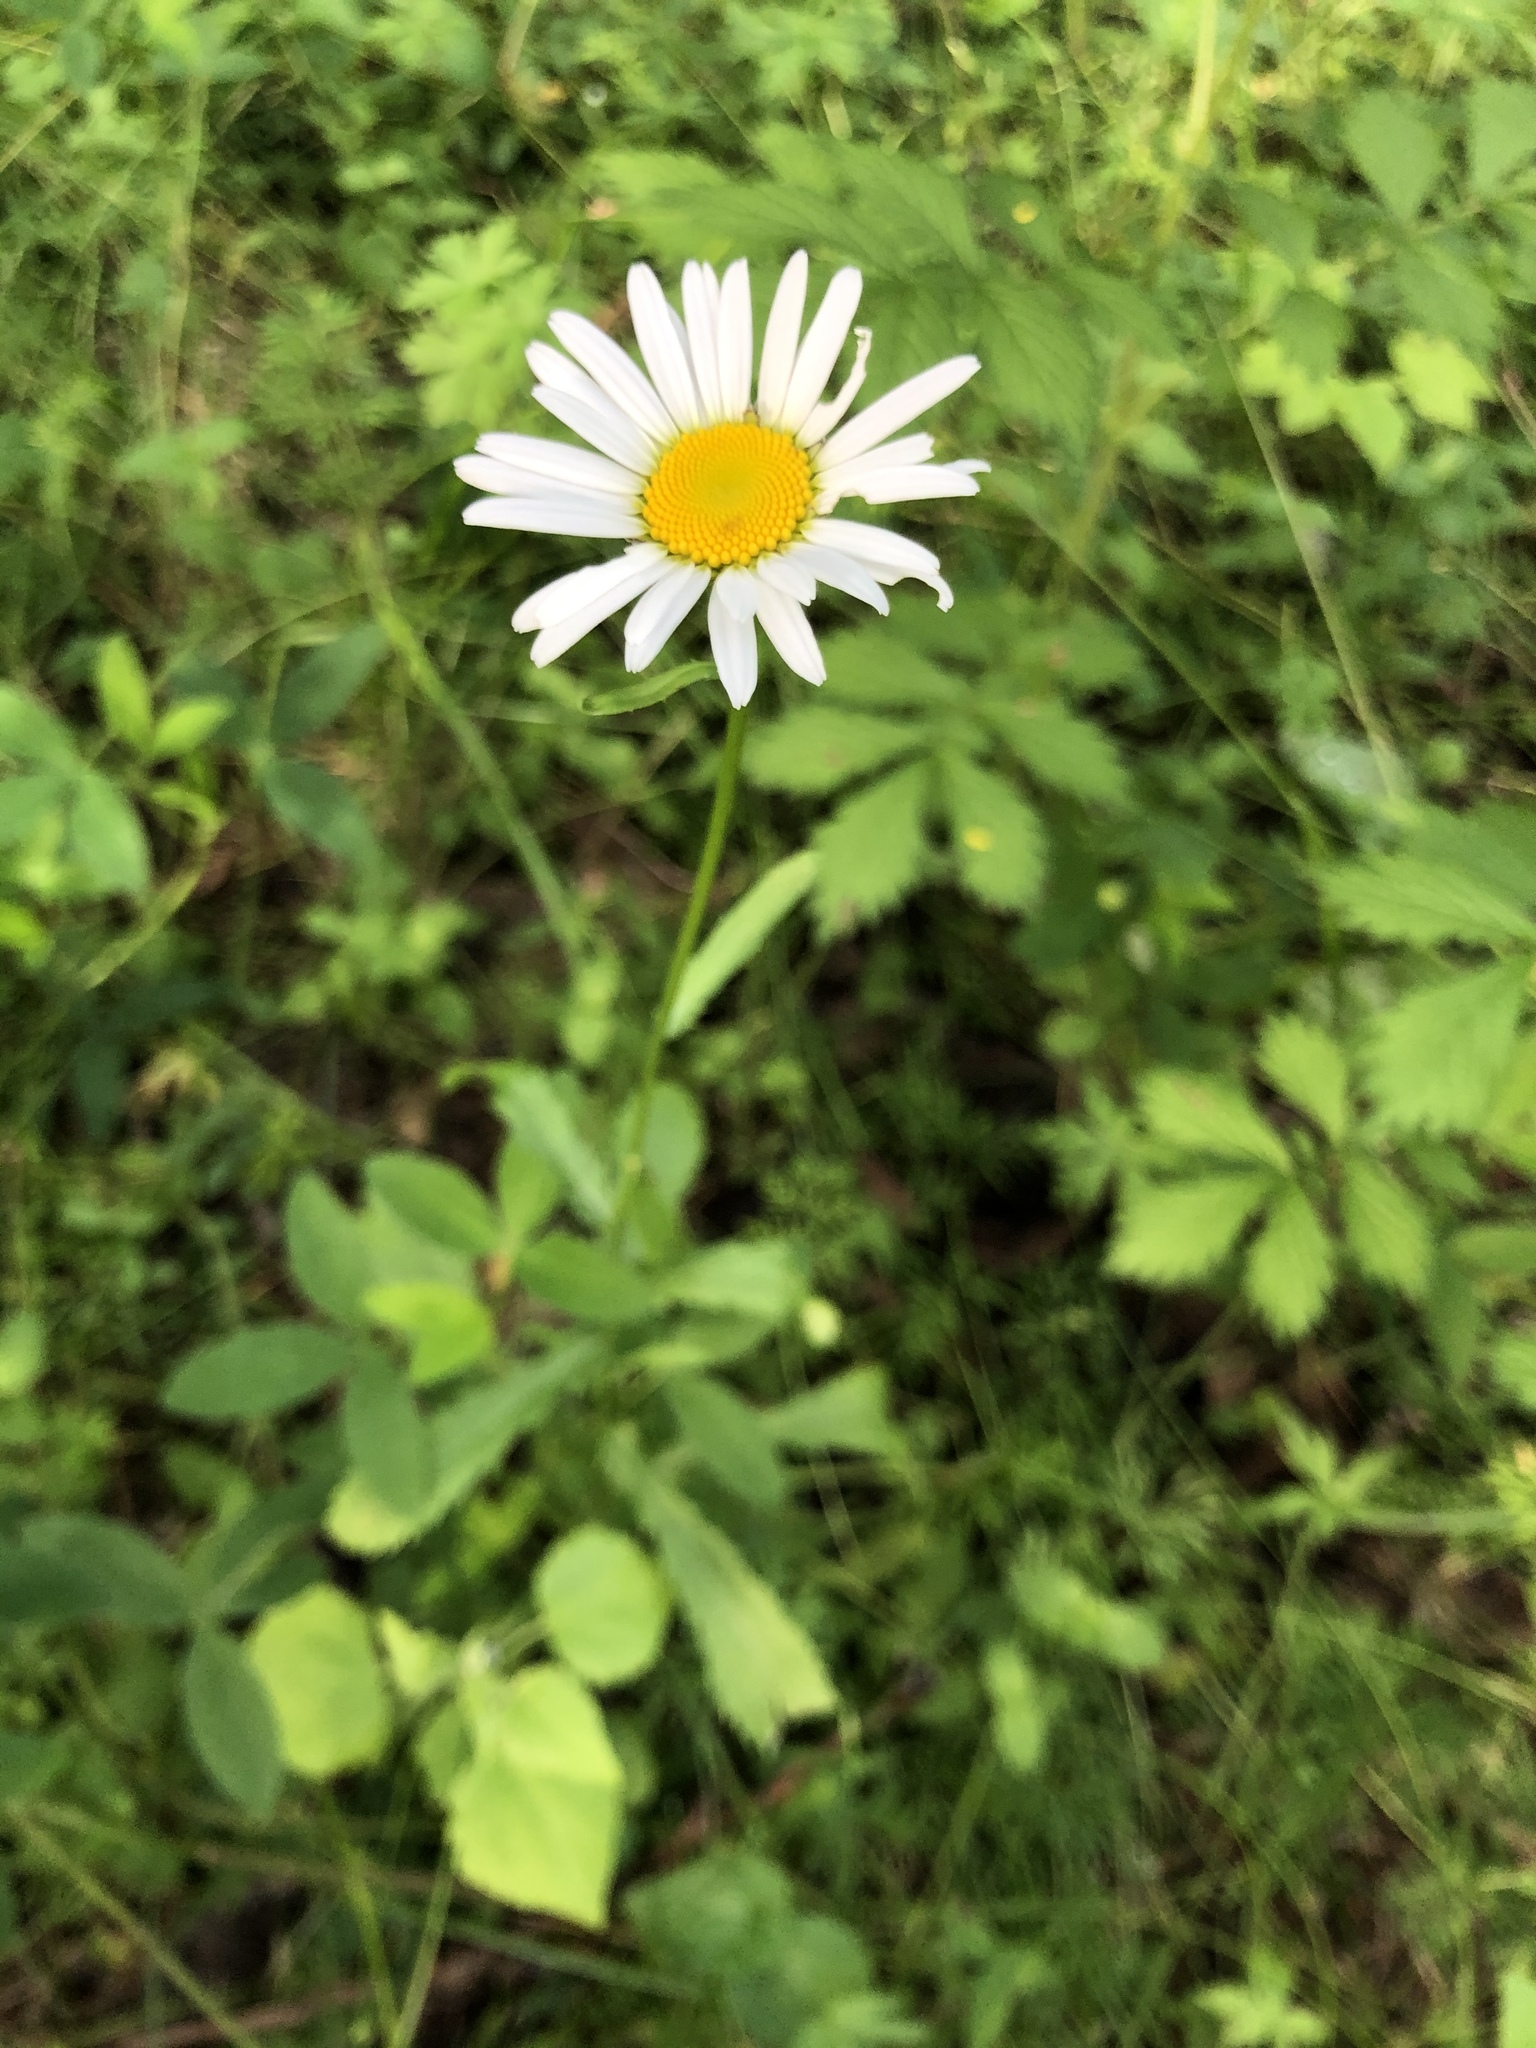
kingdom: Plantae
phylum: Tracheophyta
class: Magnoliopsida
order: Asterales
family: Asteraceae
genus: Leucanthemum
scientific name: Leucanthemum ircutianum
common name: Daisy
